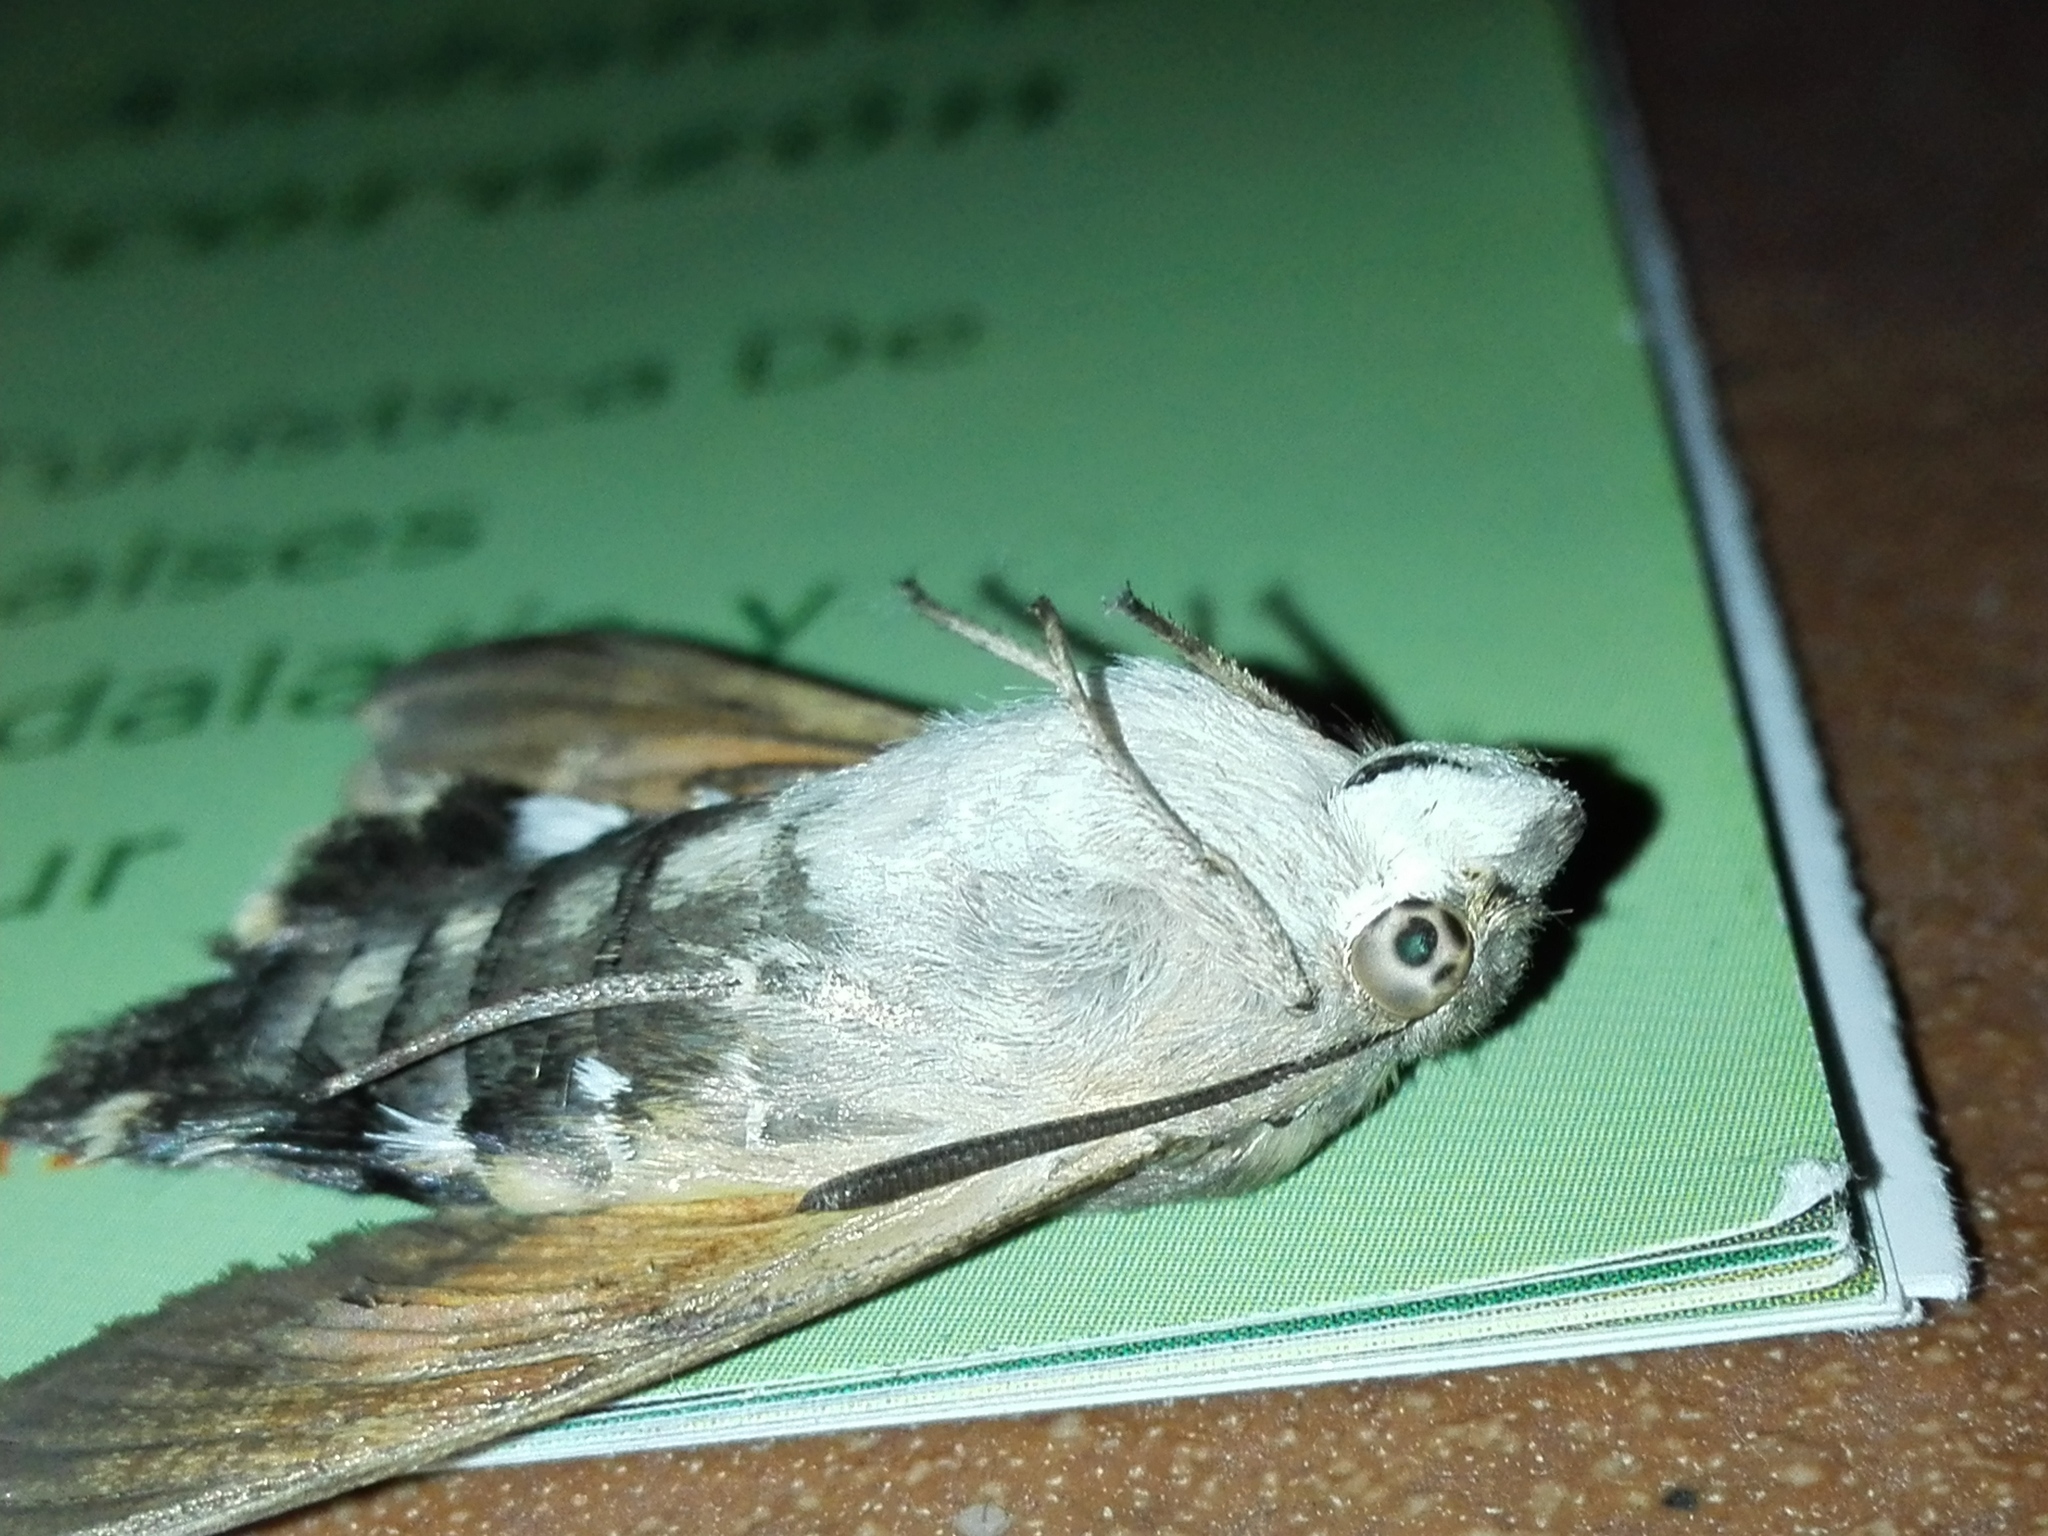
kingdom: Animalia
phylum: Arthropoda
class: Insecta
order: Lepidoptera
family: Sphingidae
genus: Macroglossum
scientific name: Macroglossum stellatarum
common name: Humming-bird hawk-moth
